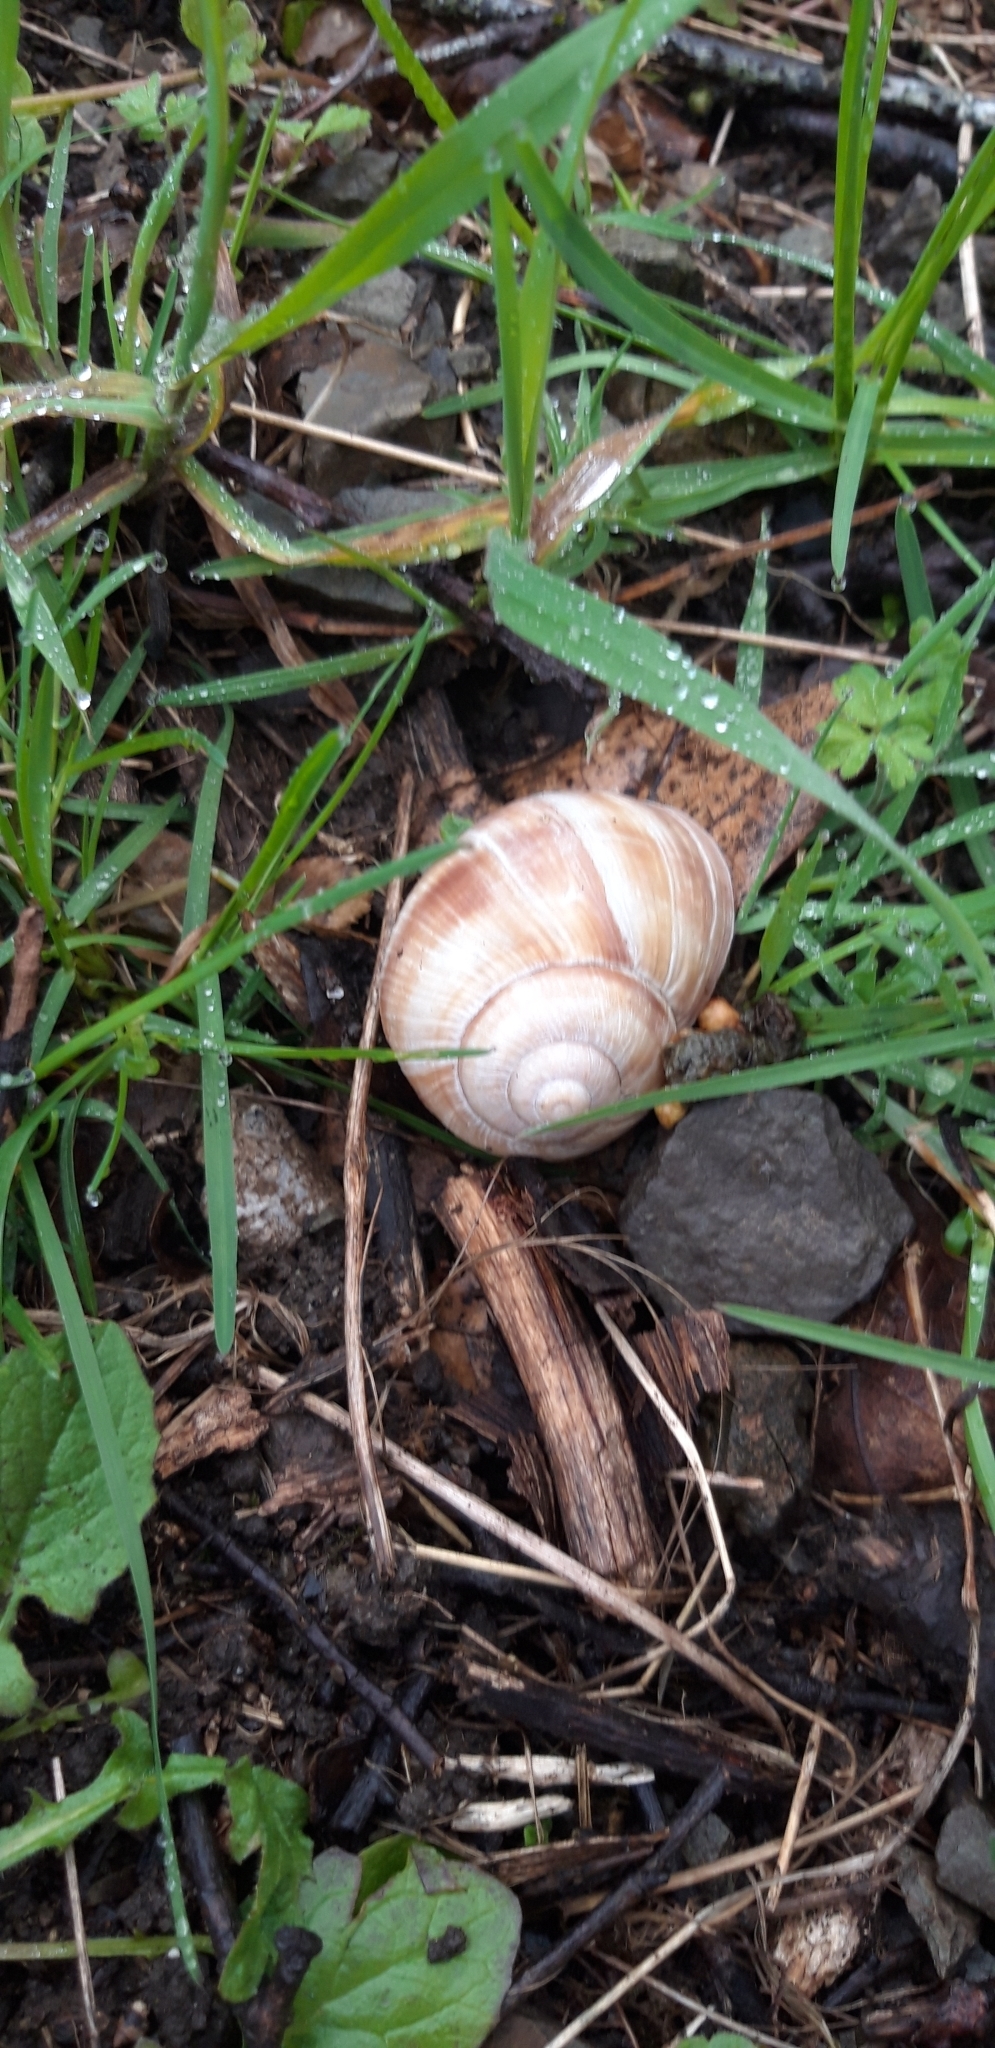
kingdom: Animalia
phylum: Mollusca
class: Gastropoda
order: Stylommatophora
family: Helicidae
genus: Helix
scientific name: Helix pomatia
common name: Roman snail
